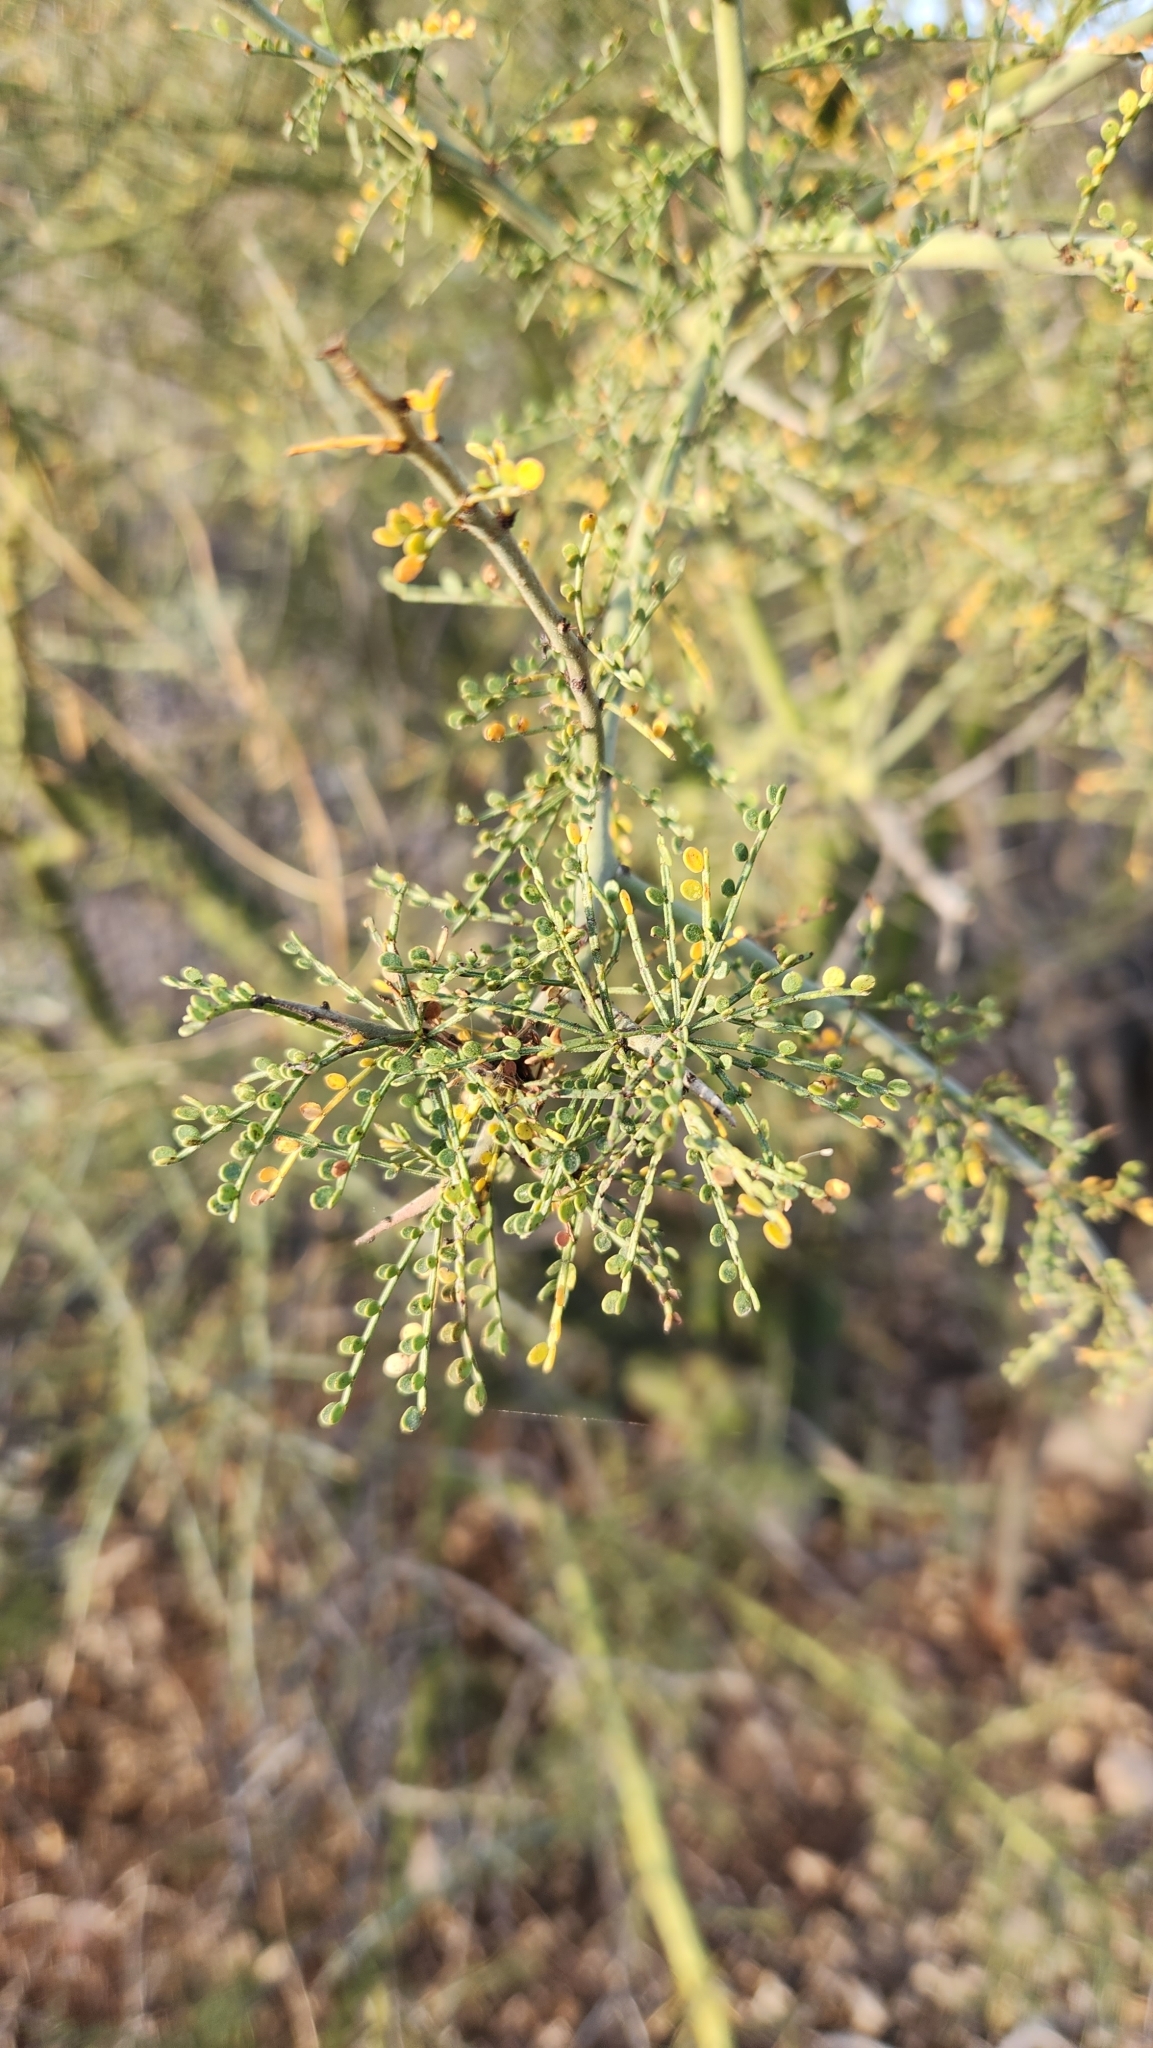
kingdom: Plantae
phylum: Tracheophyta
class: Magnoliopsida
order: Fabales
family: Fabaceae
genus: Parkinsonia
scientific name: Parkinsonia microphylla
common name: Yellow paloverde
